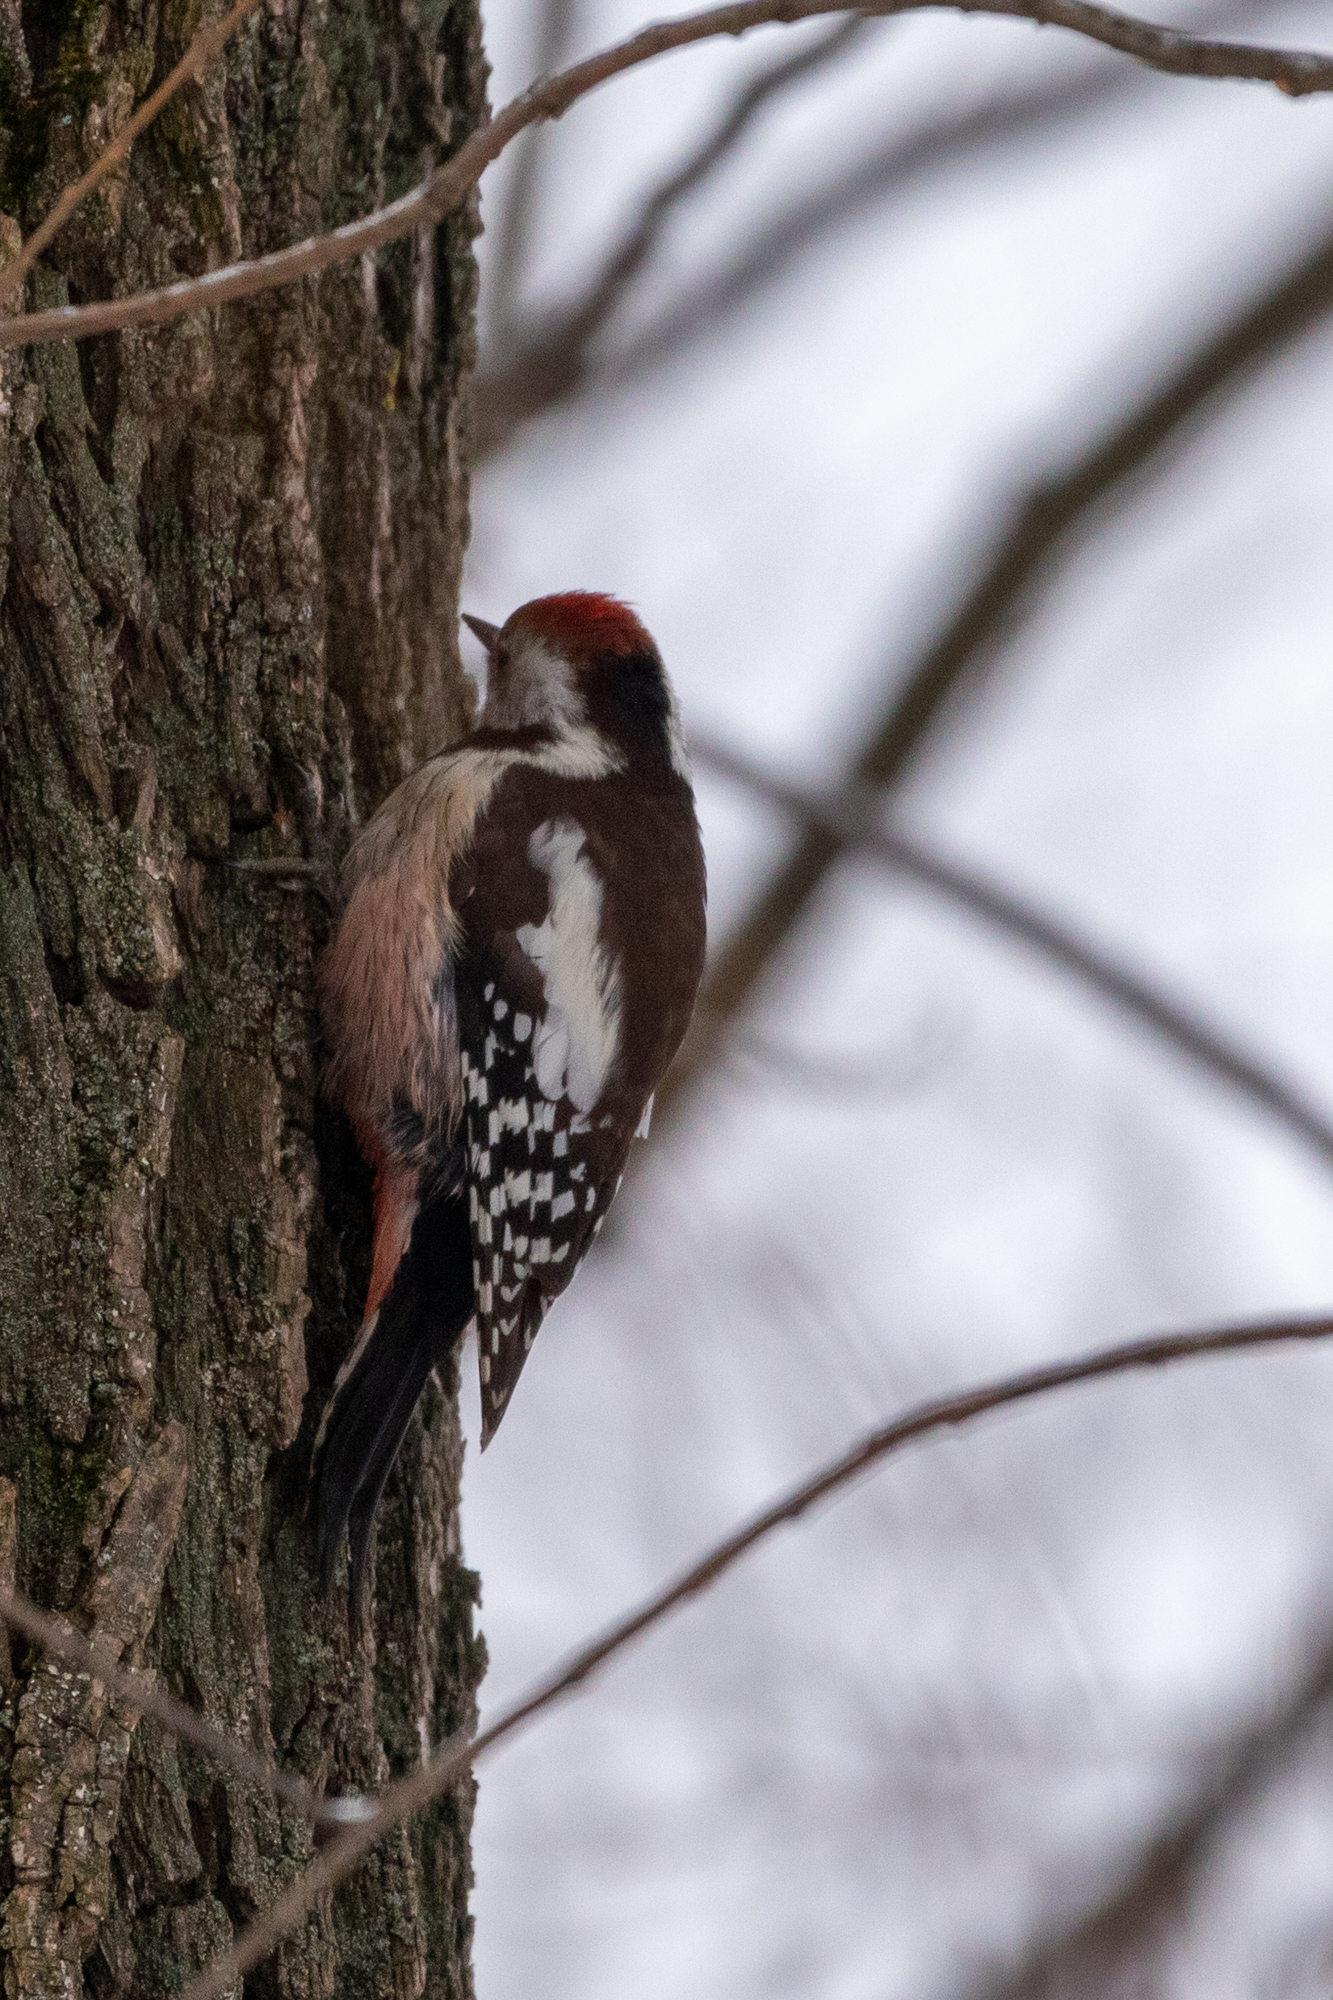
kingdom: Animalia
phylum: Chordata
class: Aves
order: Piciformes
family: Picidae
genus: Dendrocoptes
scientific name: Dendrocoptes medius
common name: Middle spotted woodpecker
